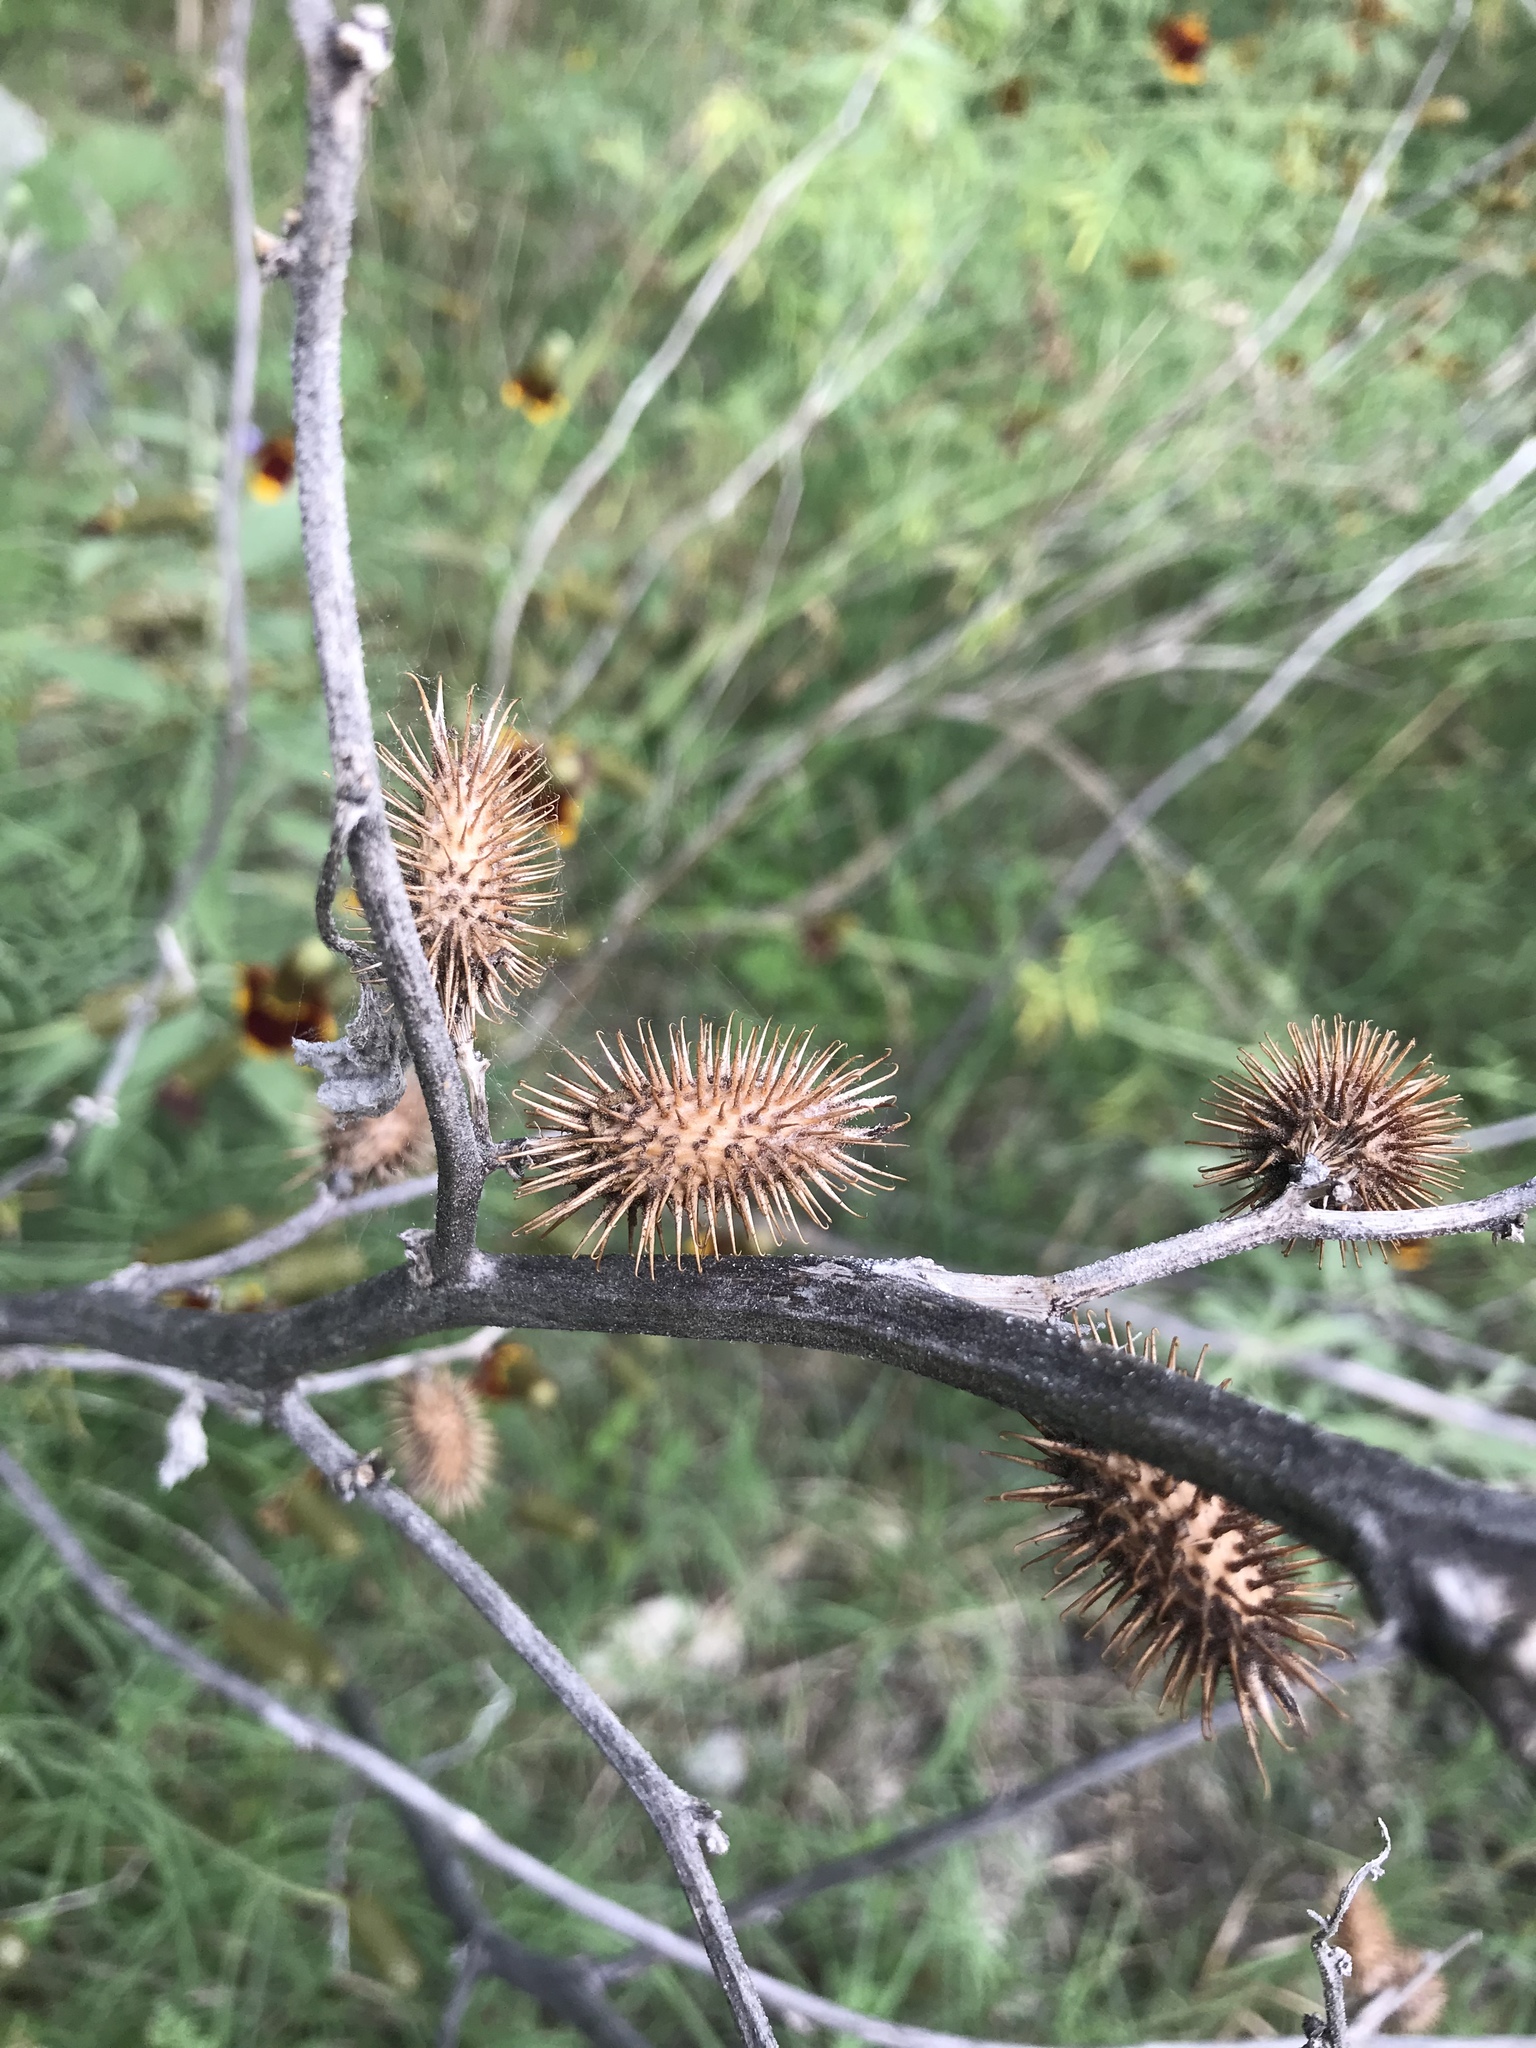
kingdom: Plantae
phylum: Tracheophyta
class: Magnoliopsida
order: Asterales
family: Asteraceae
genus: Xanthium
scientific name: Xanthium strumarium
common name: Rough cocklebur
